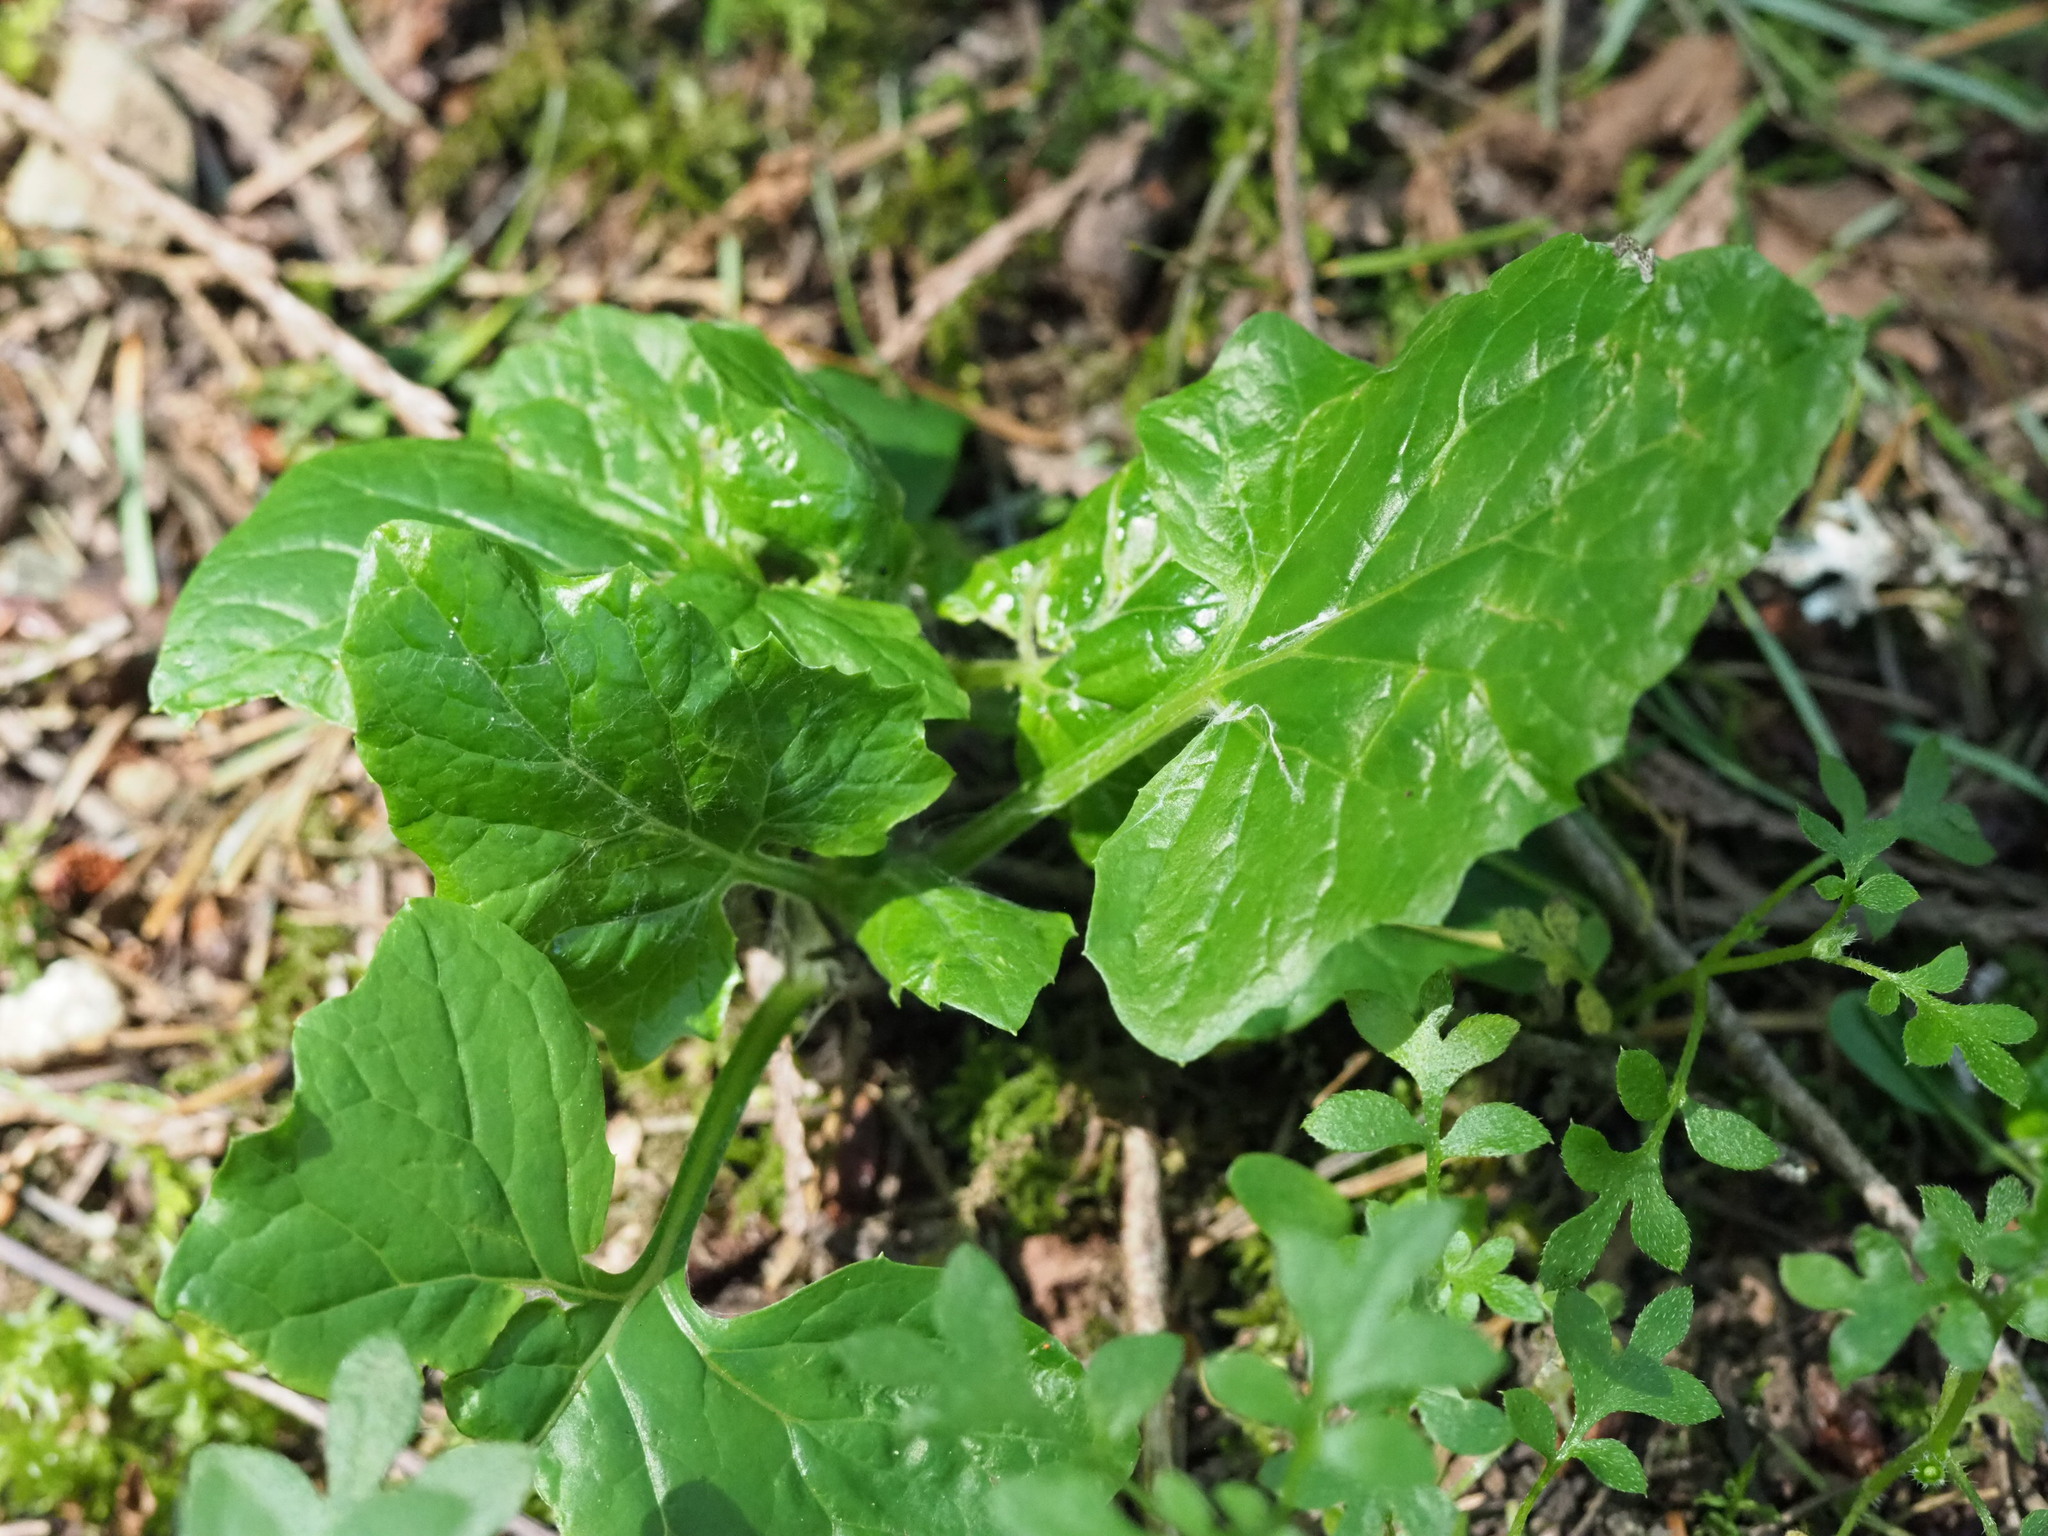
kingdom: Plantae
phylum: Tracheophyta
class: Magnoliopsida
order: Asterales
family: Asteraceae
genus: Adenocaulon
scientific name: Adenocaulon bicolor
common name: Trailplant
